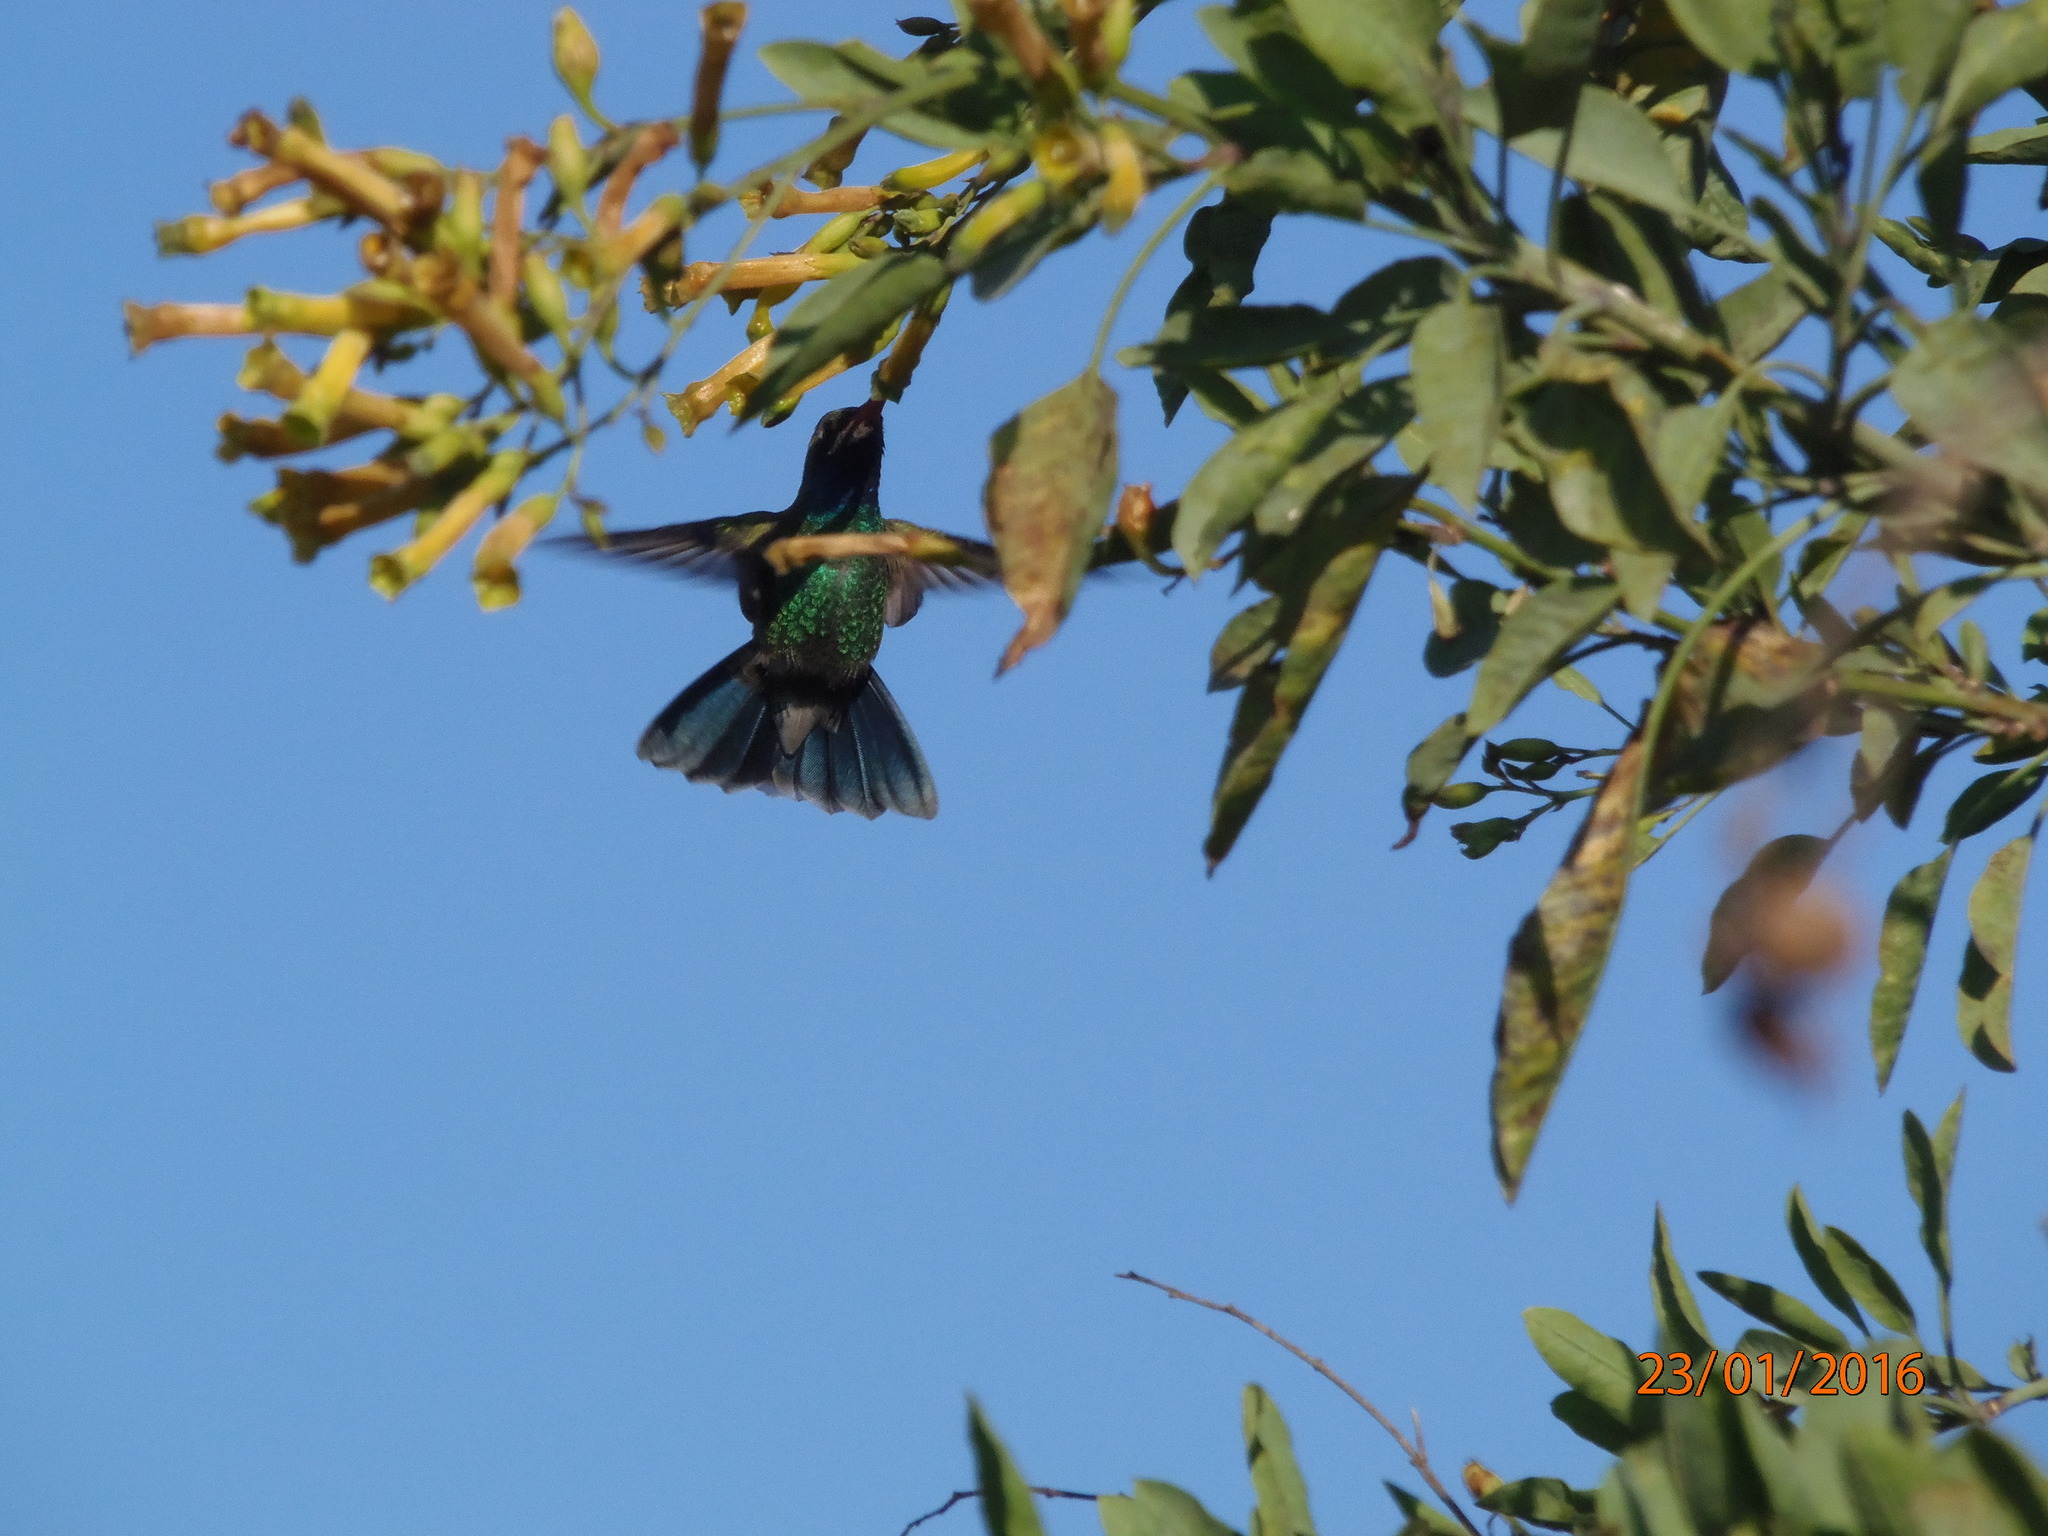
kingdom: Animalia
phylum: Chordata
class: Aves
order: Apodiformes
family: Trochilidae
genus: Cynanthus
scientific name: Cynanthus latirostris
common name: Broad-billed hummingbird
